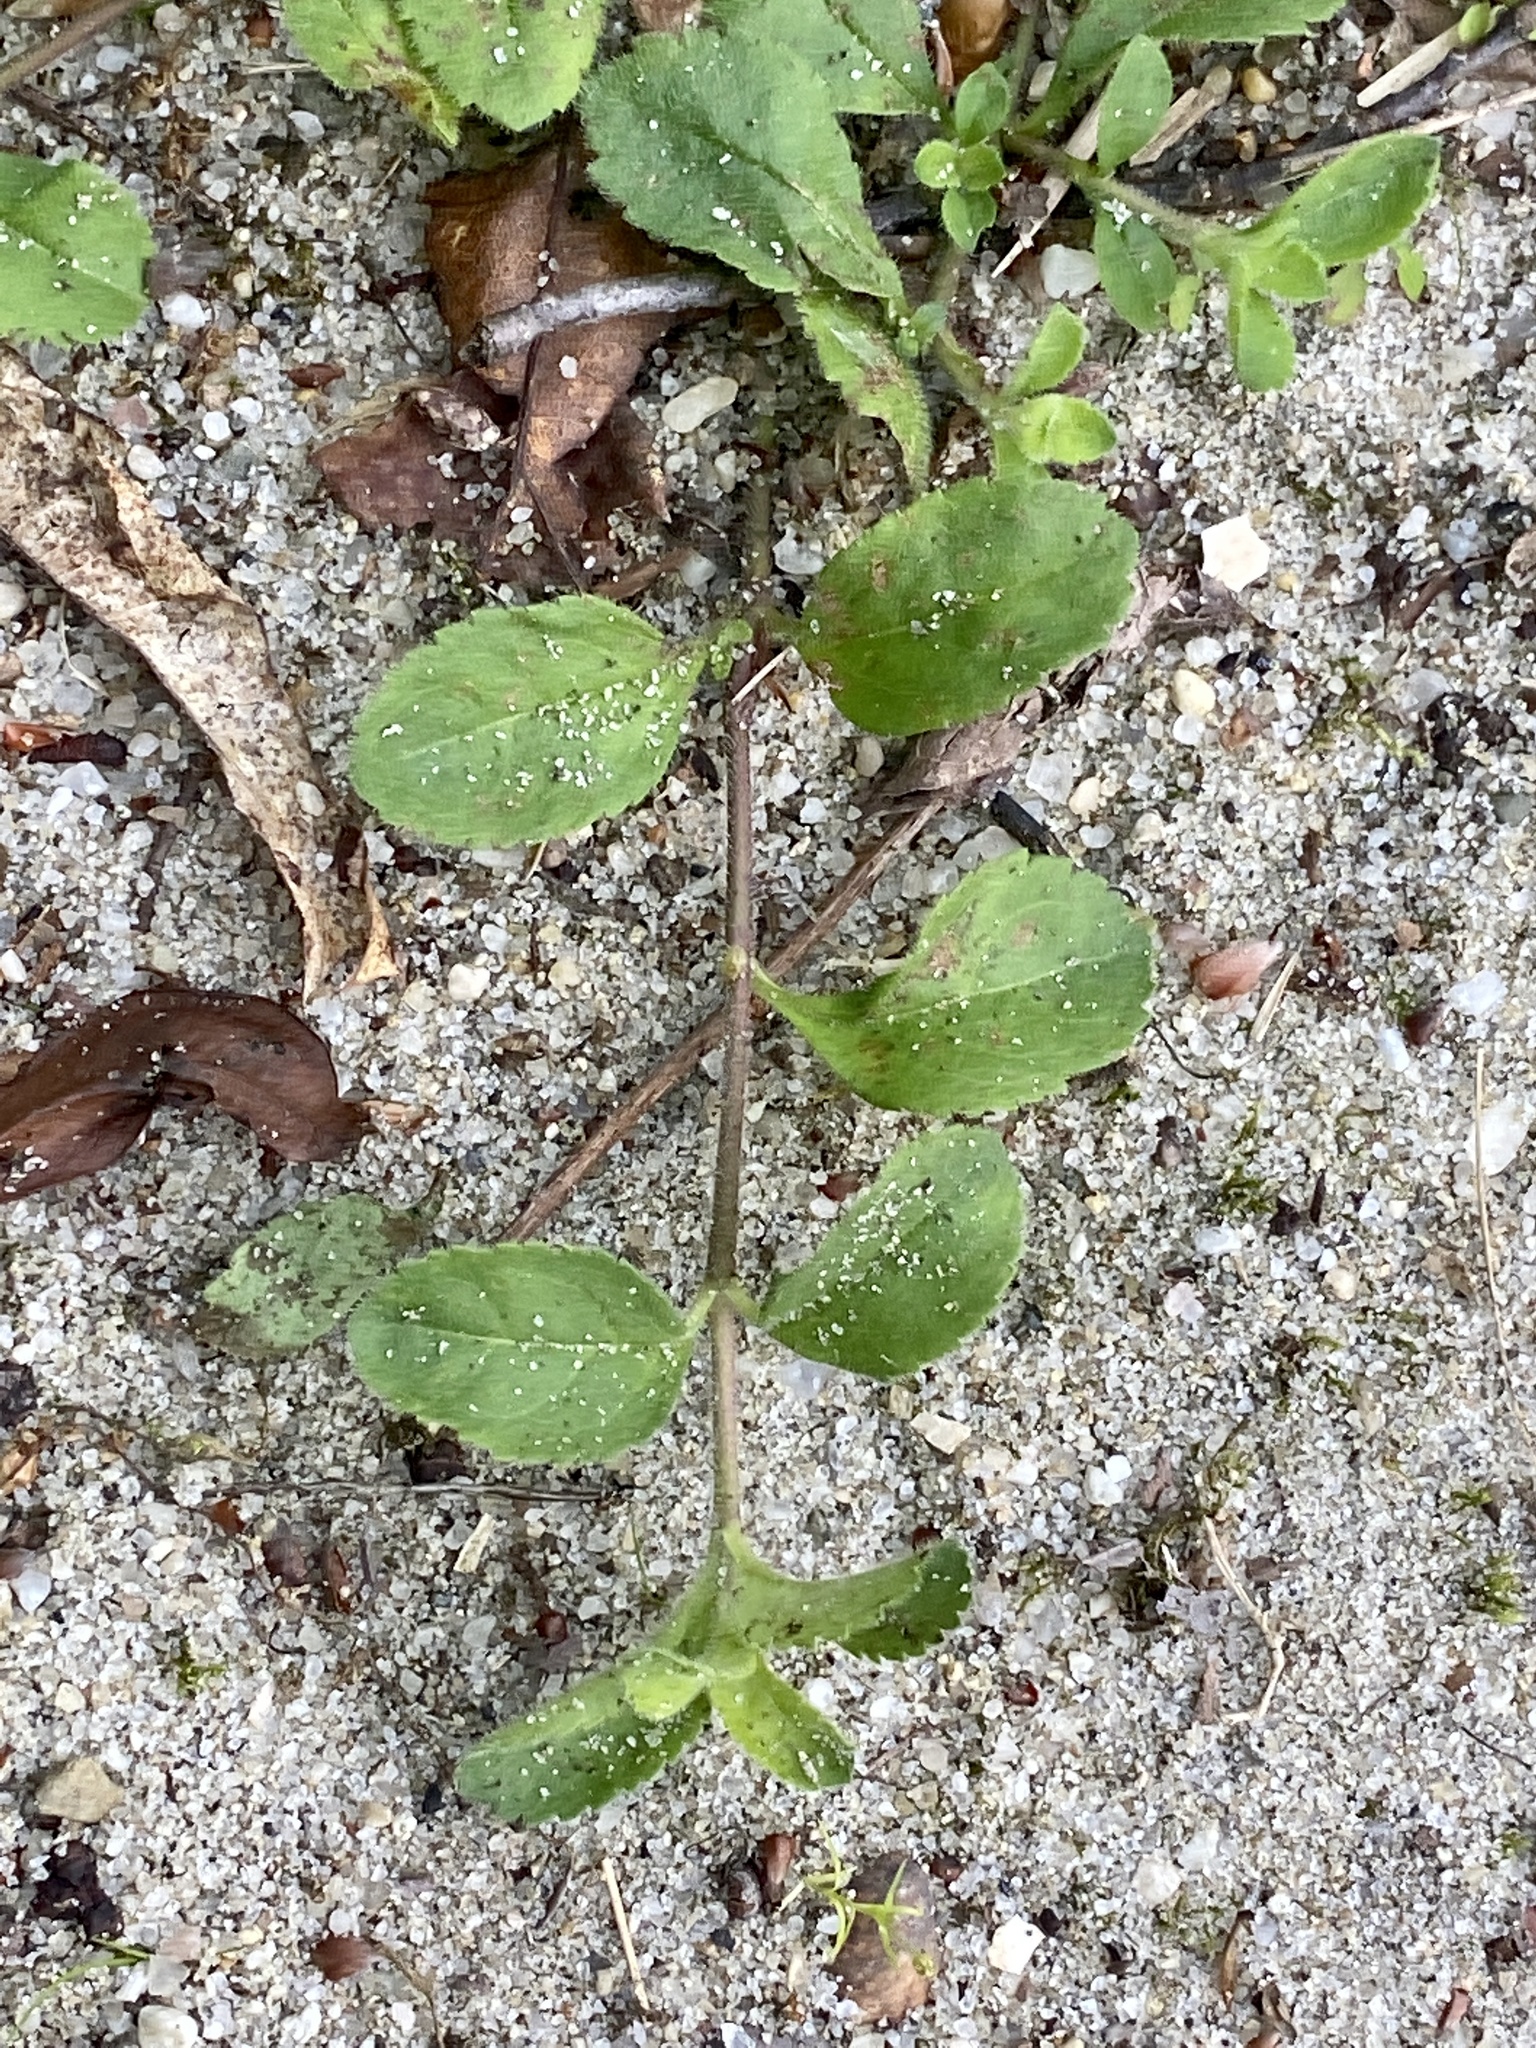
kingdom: Plantae
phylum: Tracheophyta
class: Magnoliopsida
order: Lamiales
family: Plantaginaceae
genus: Veronica
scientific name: Veronica officinalis
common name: Common speedwell
